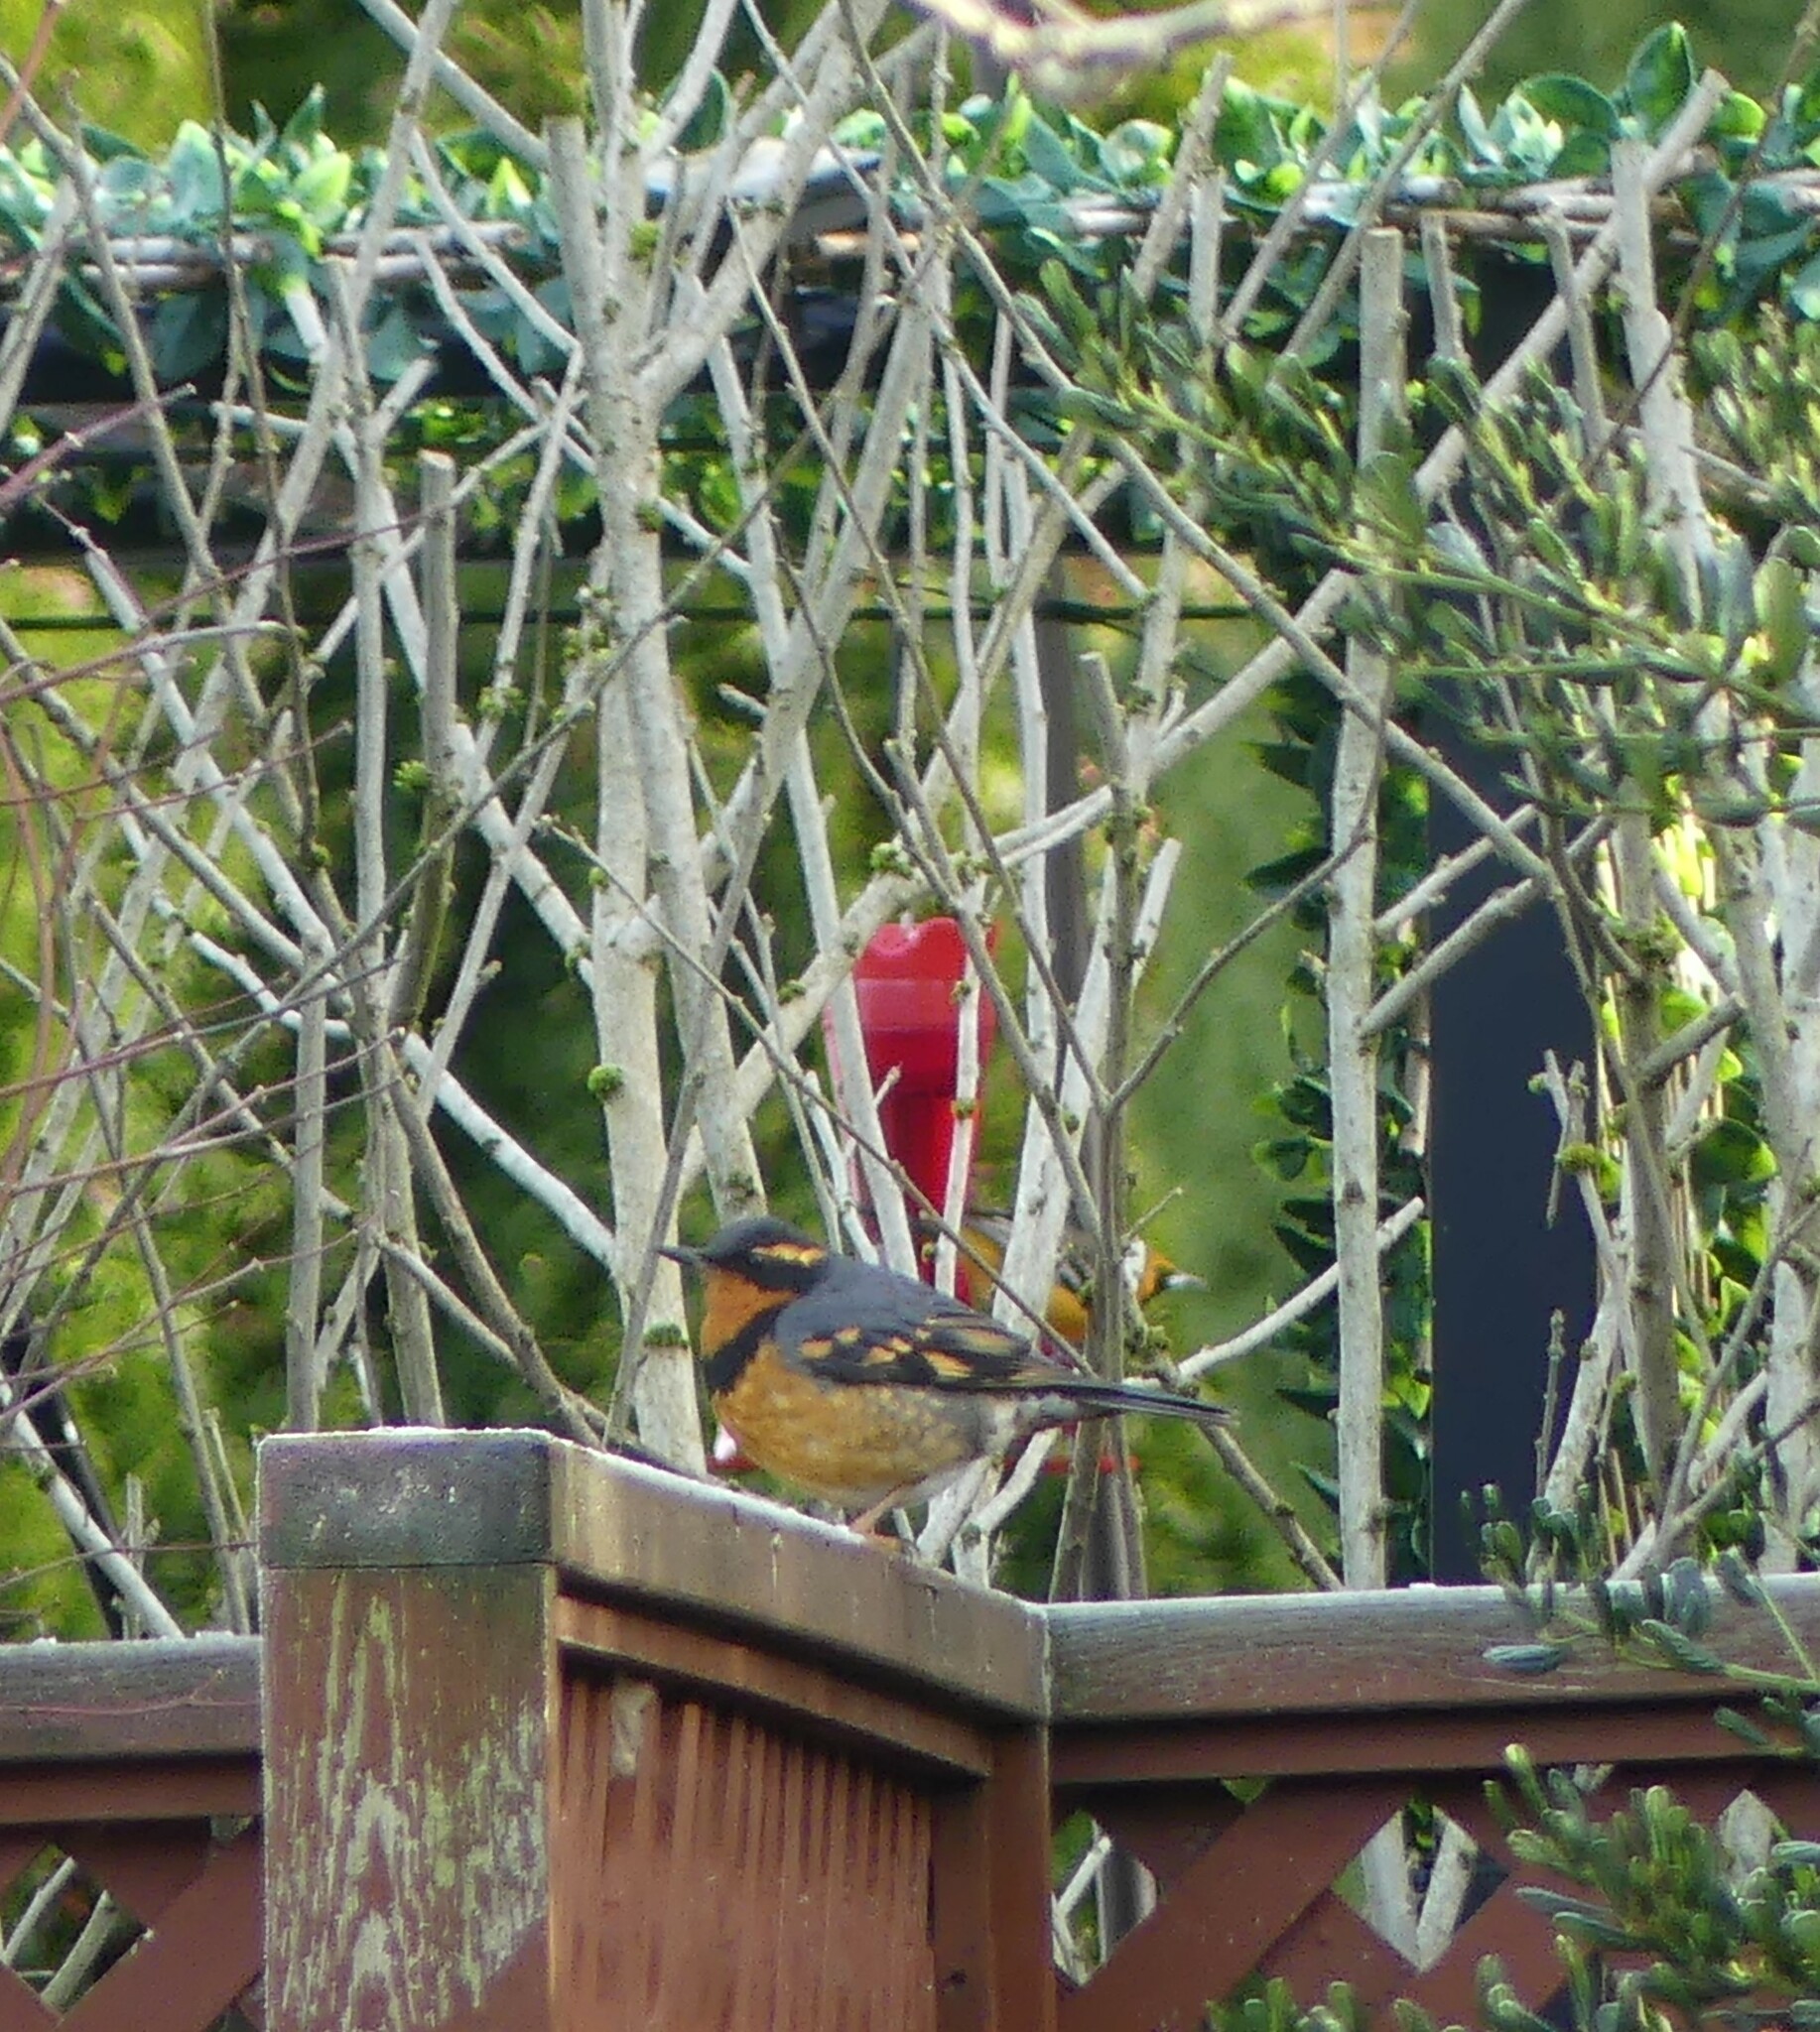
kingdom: Animalia
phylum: Chordata
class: Aves
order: Passeriformes
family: Turdidae
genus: Ixoreus
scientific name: Ixoreus naevius
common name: Varied thrush
